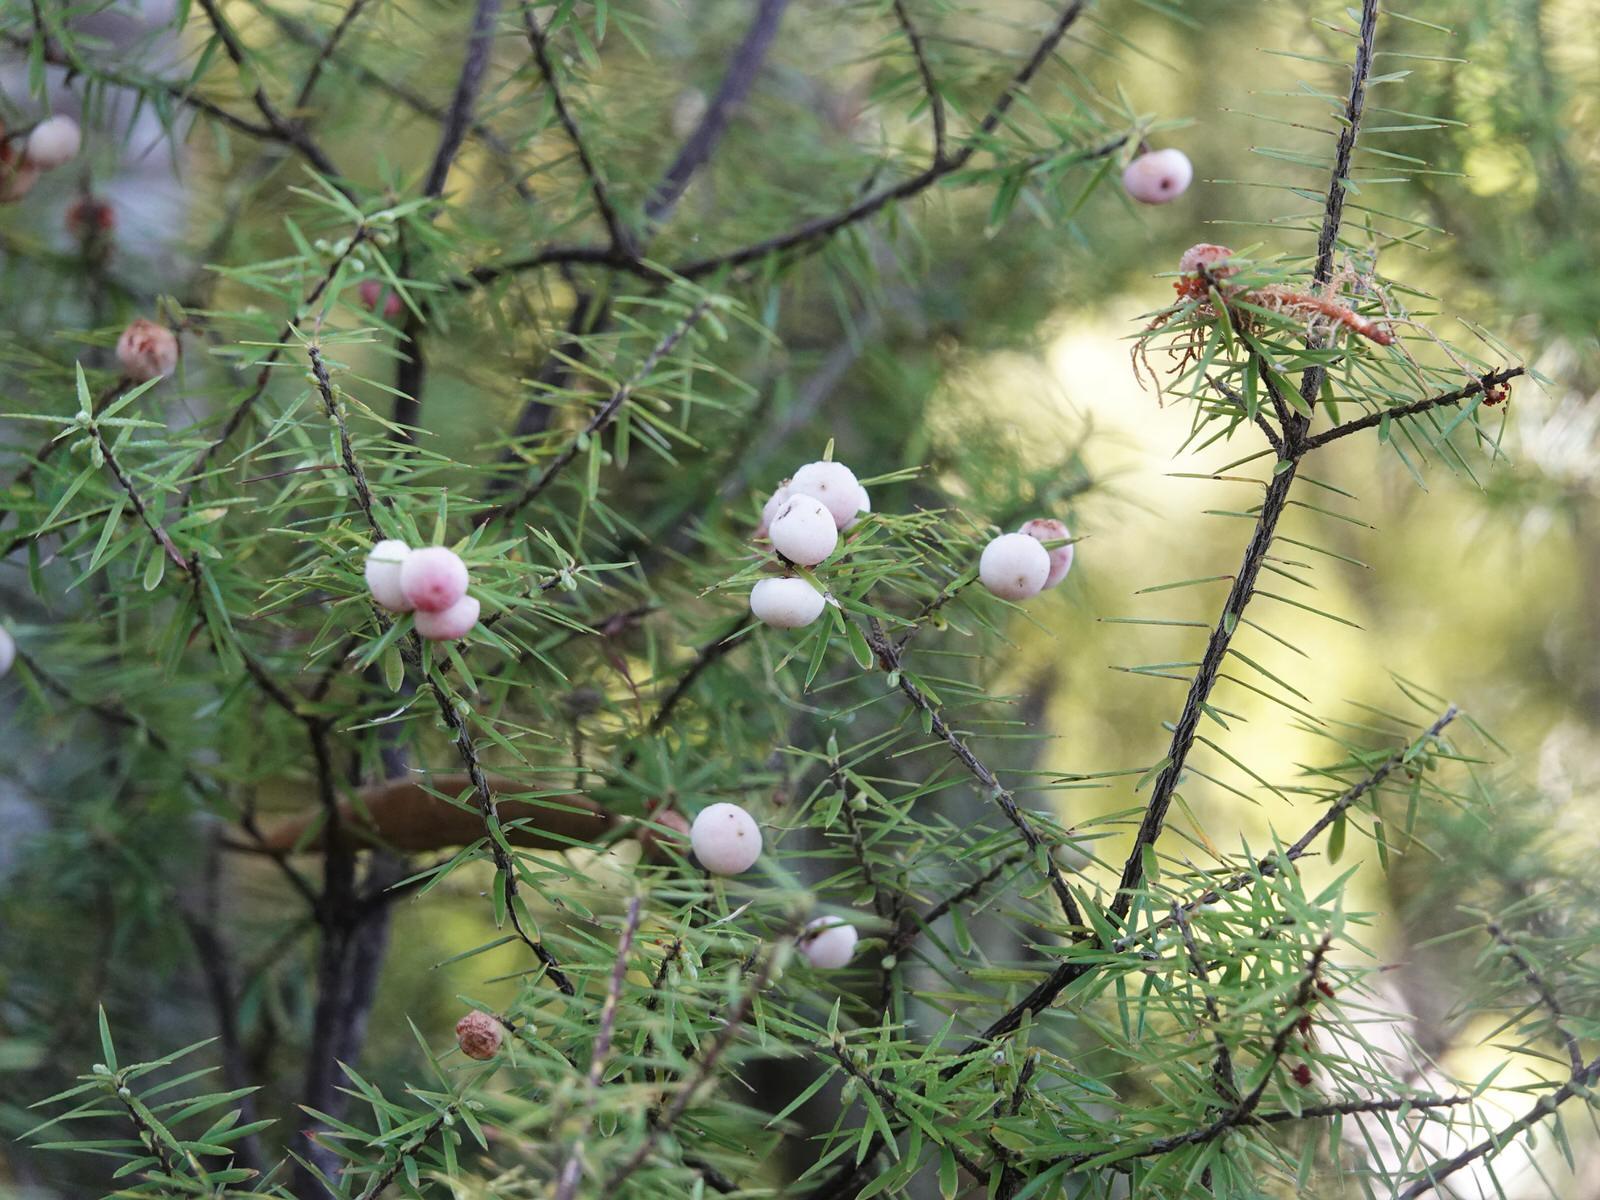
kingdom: Plantae
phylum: Tracheophyta
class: Magnoliopsida
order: Ericales
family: Ericaceae
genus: Leptecophylla
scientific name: Leptecophylla juniperina
